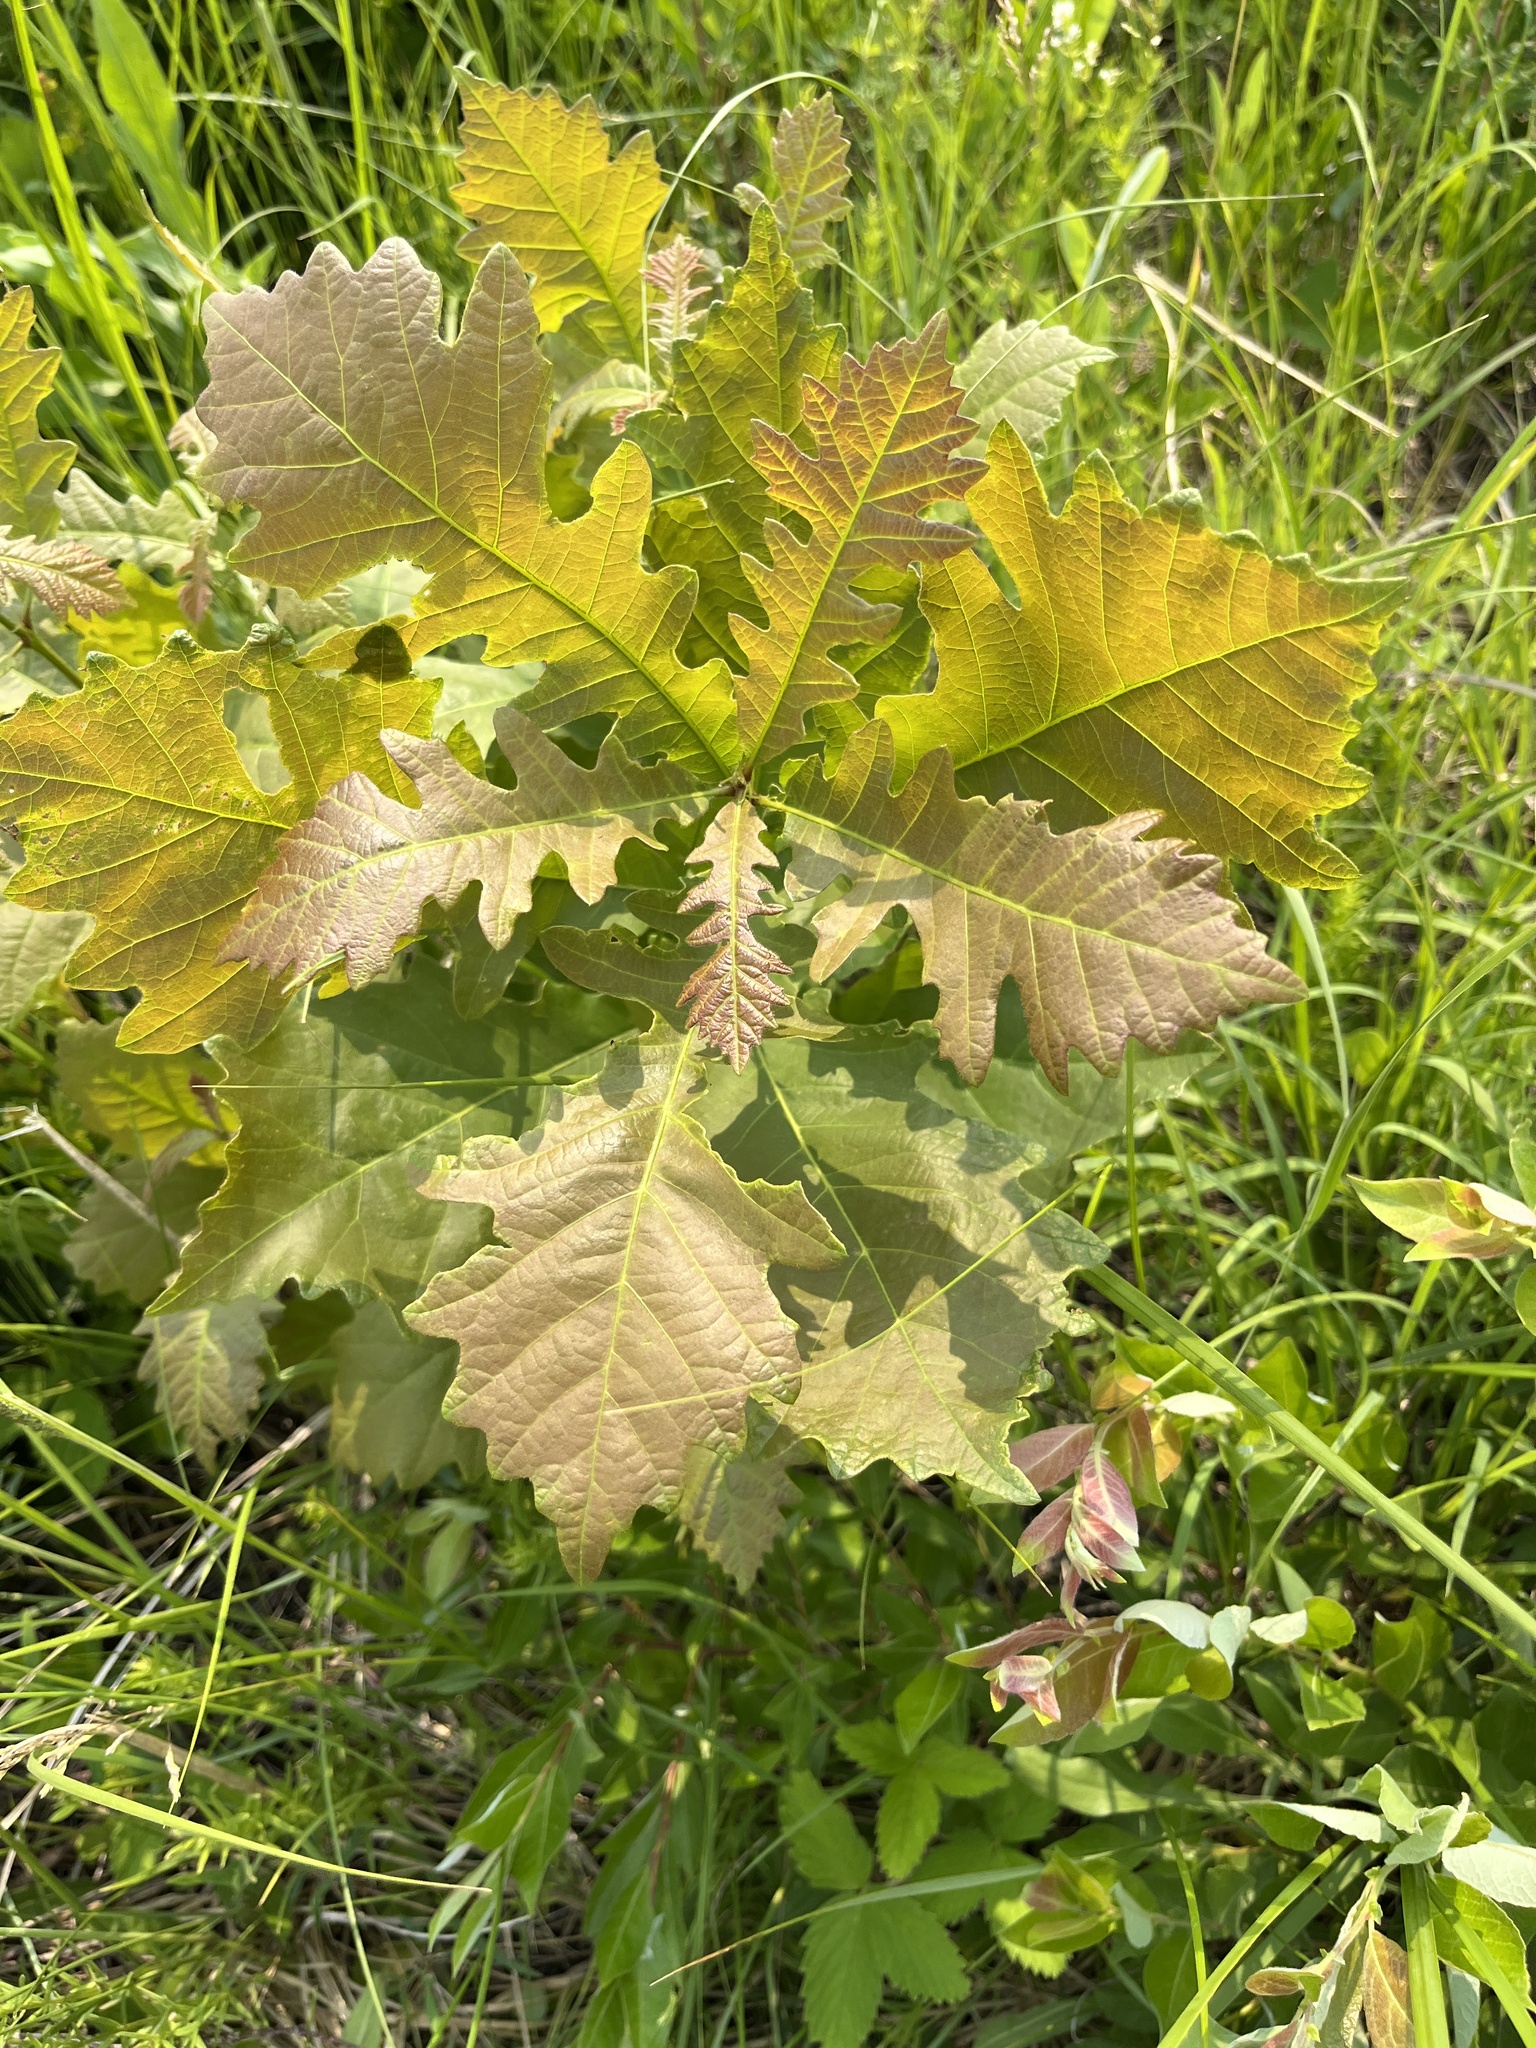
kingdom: Plantae
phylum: Tracheophyta
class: Magnoliopsida
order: Fagales
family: Fagaceae
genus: Quercus
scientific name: Quercus macrocarpa
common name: Bur oak
